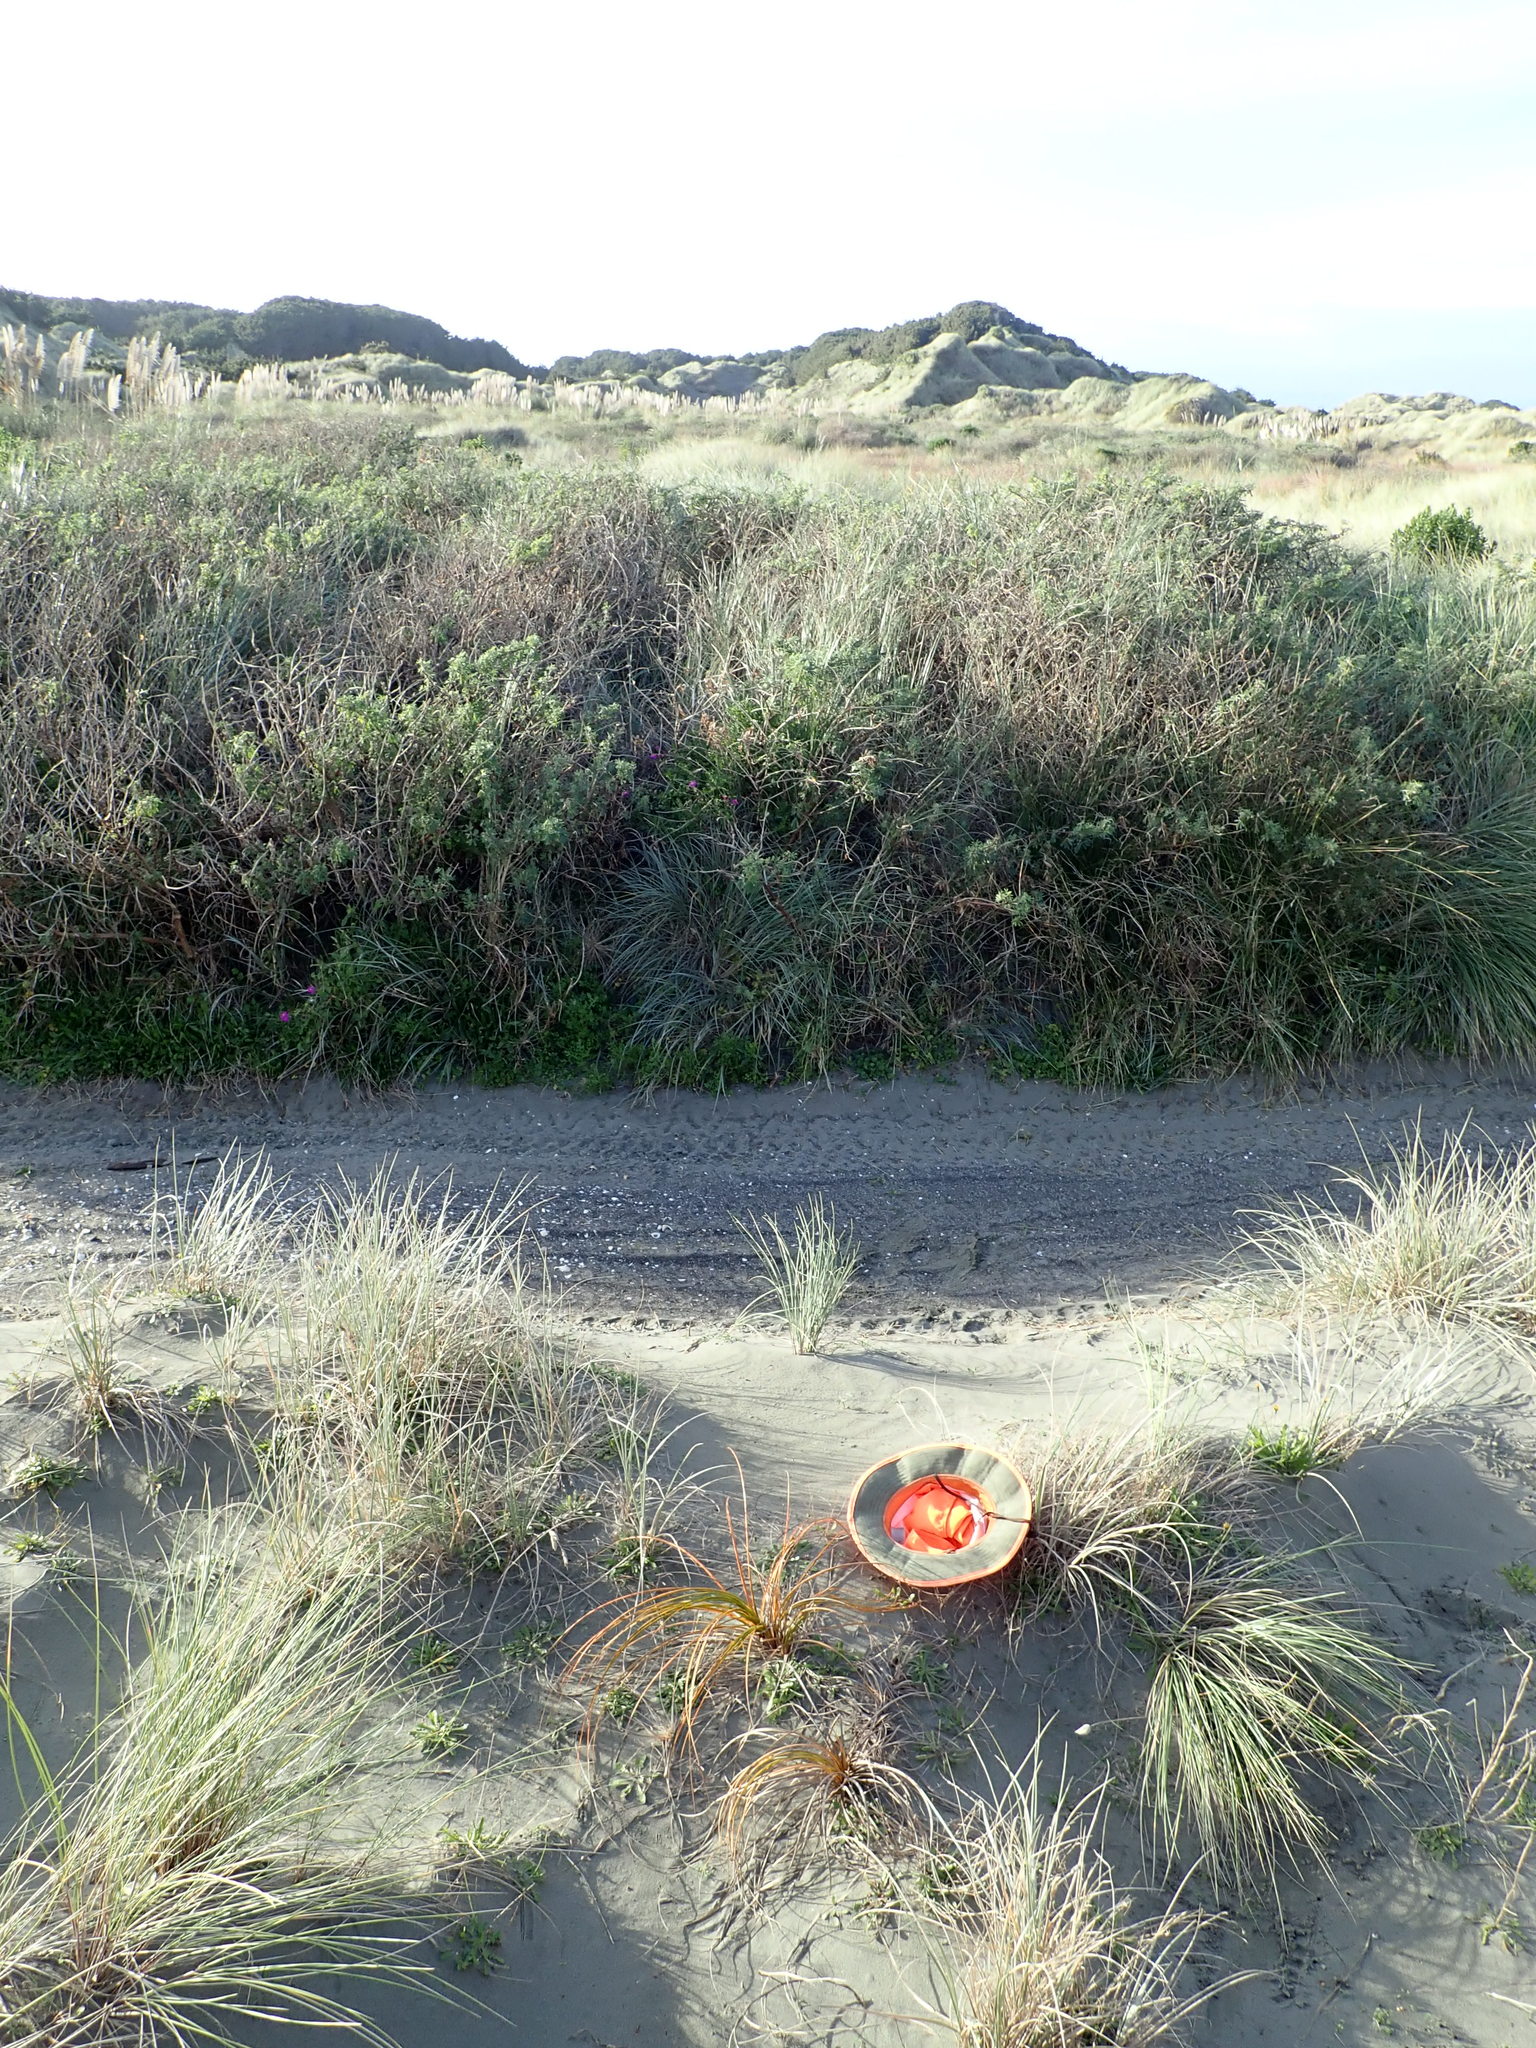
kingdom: Plantae
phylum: Tracheophyta
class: Liliopsida
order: Poales
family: Cyperaceae
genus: Ficinia
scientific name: Ficinia spiralis
